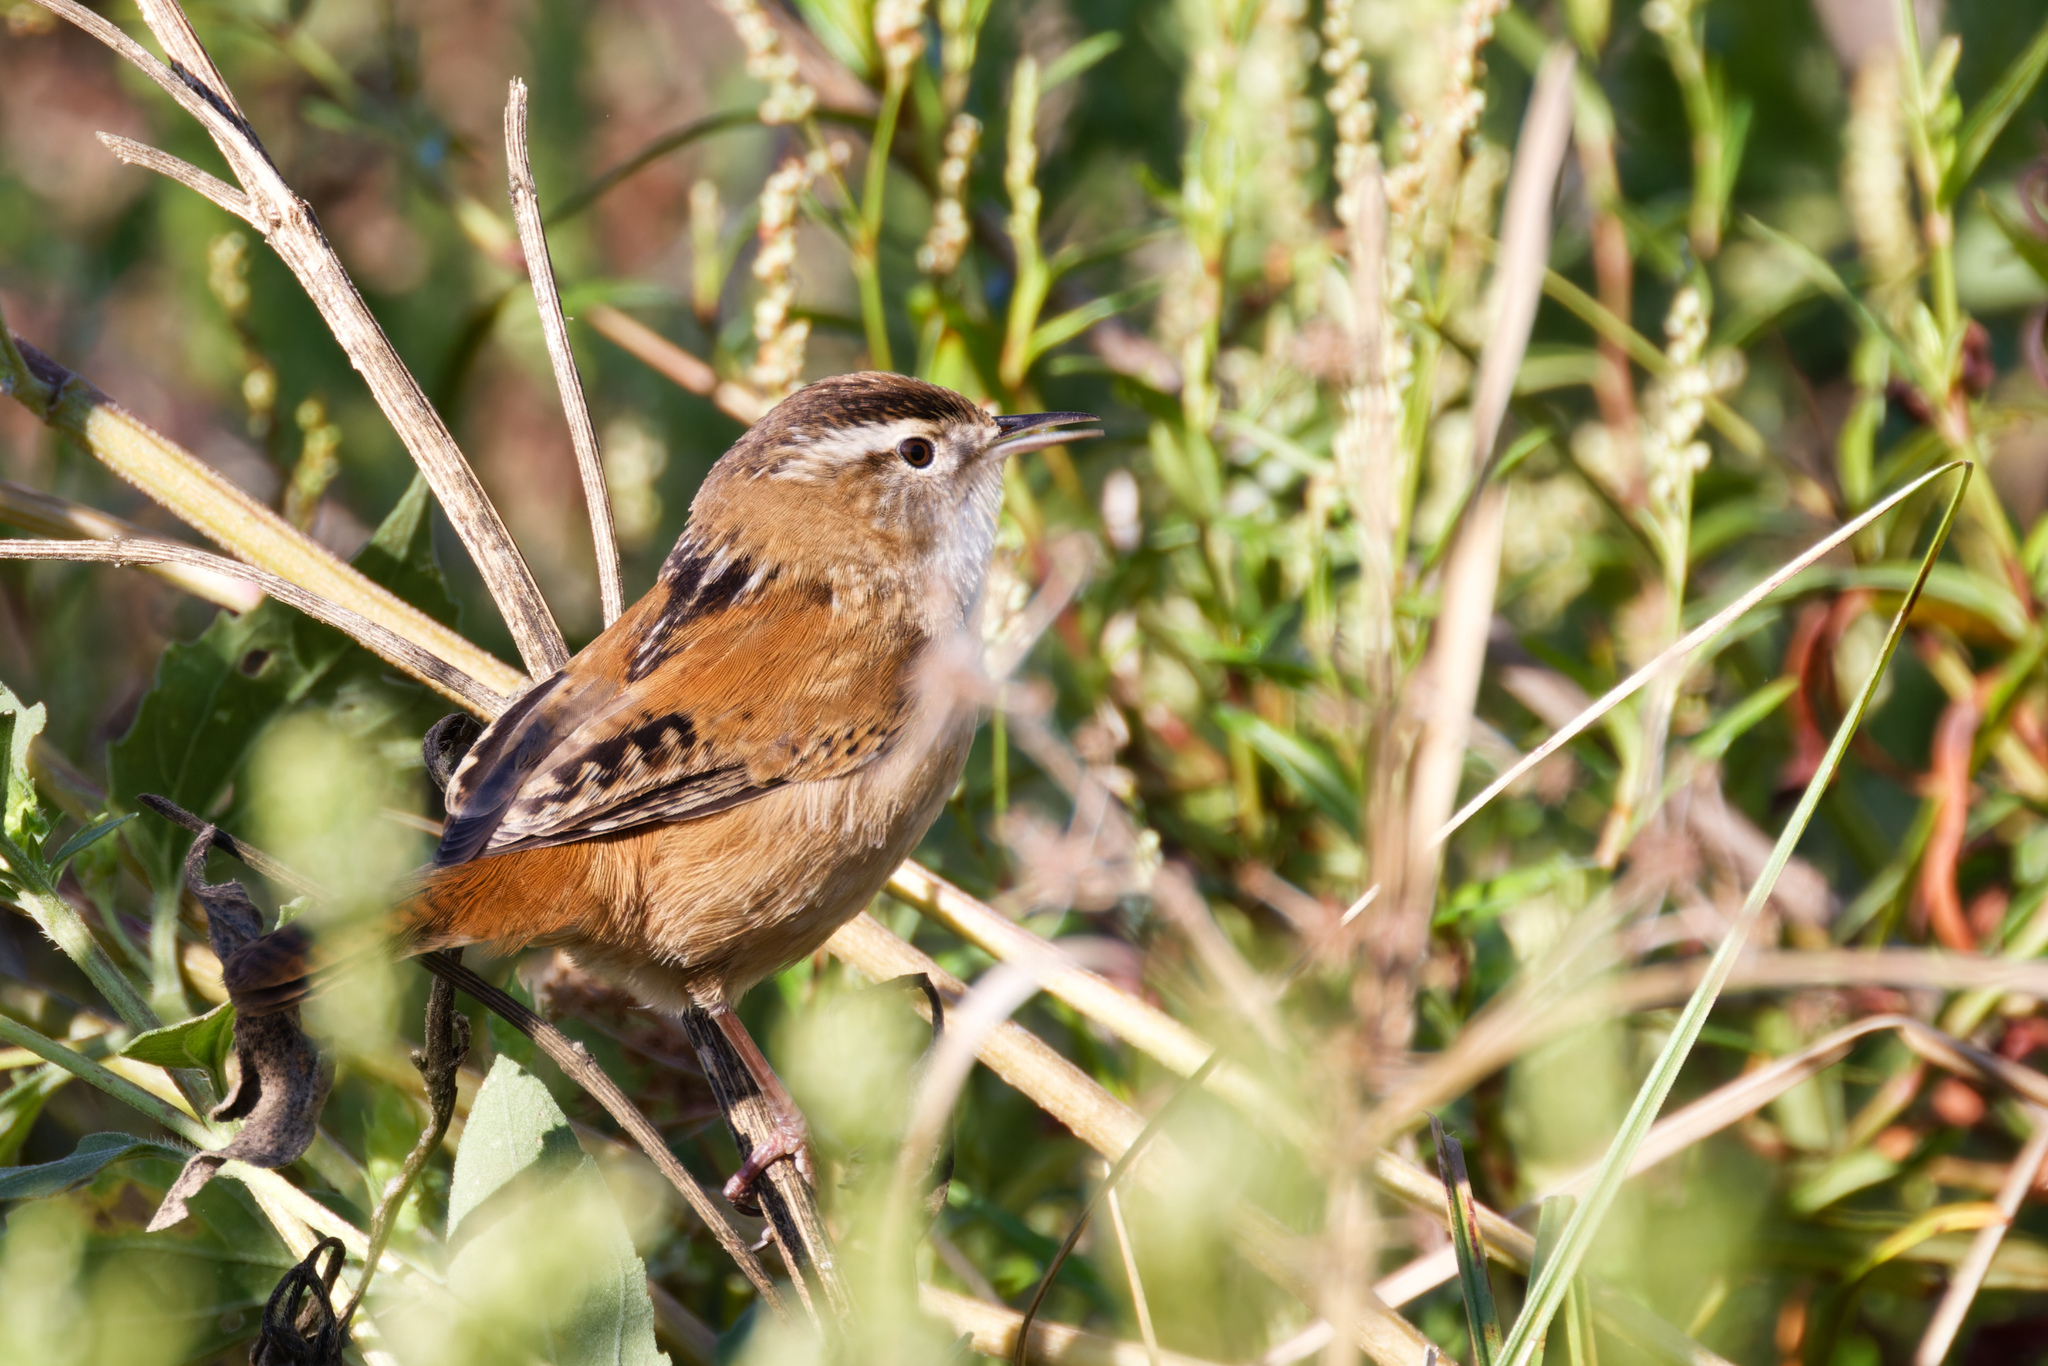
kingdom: Animalia
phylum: Chordata
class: Aves
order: Passeriformes
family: Troglodytidae
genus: Cistothorus
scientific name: Cistothorus palustris
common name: Marsh wren
